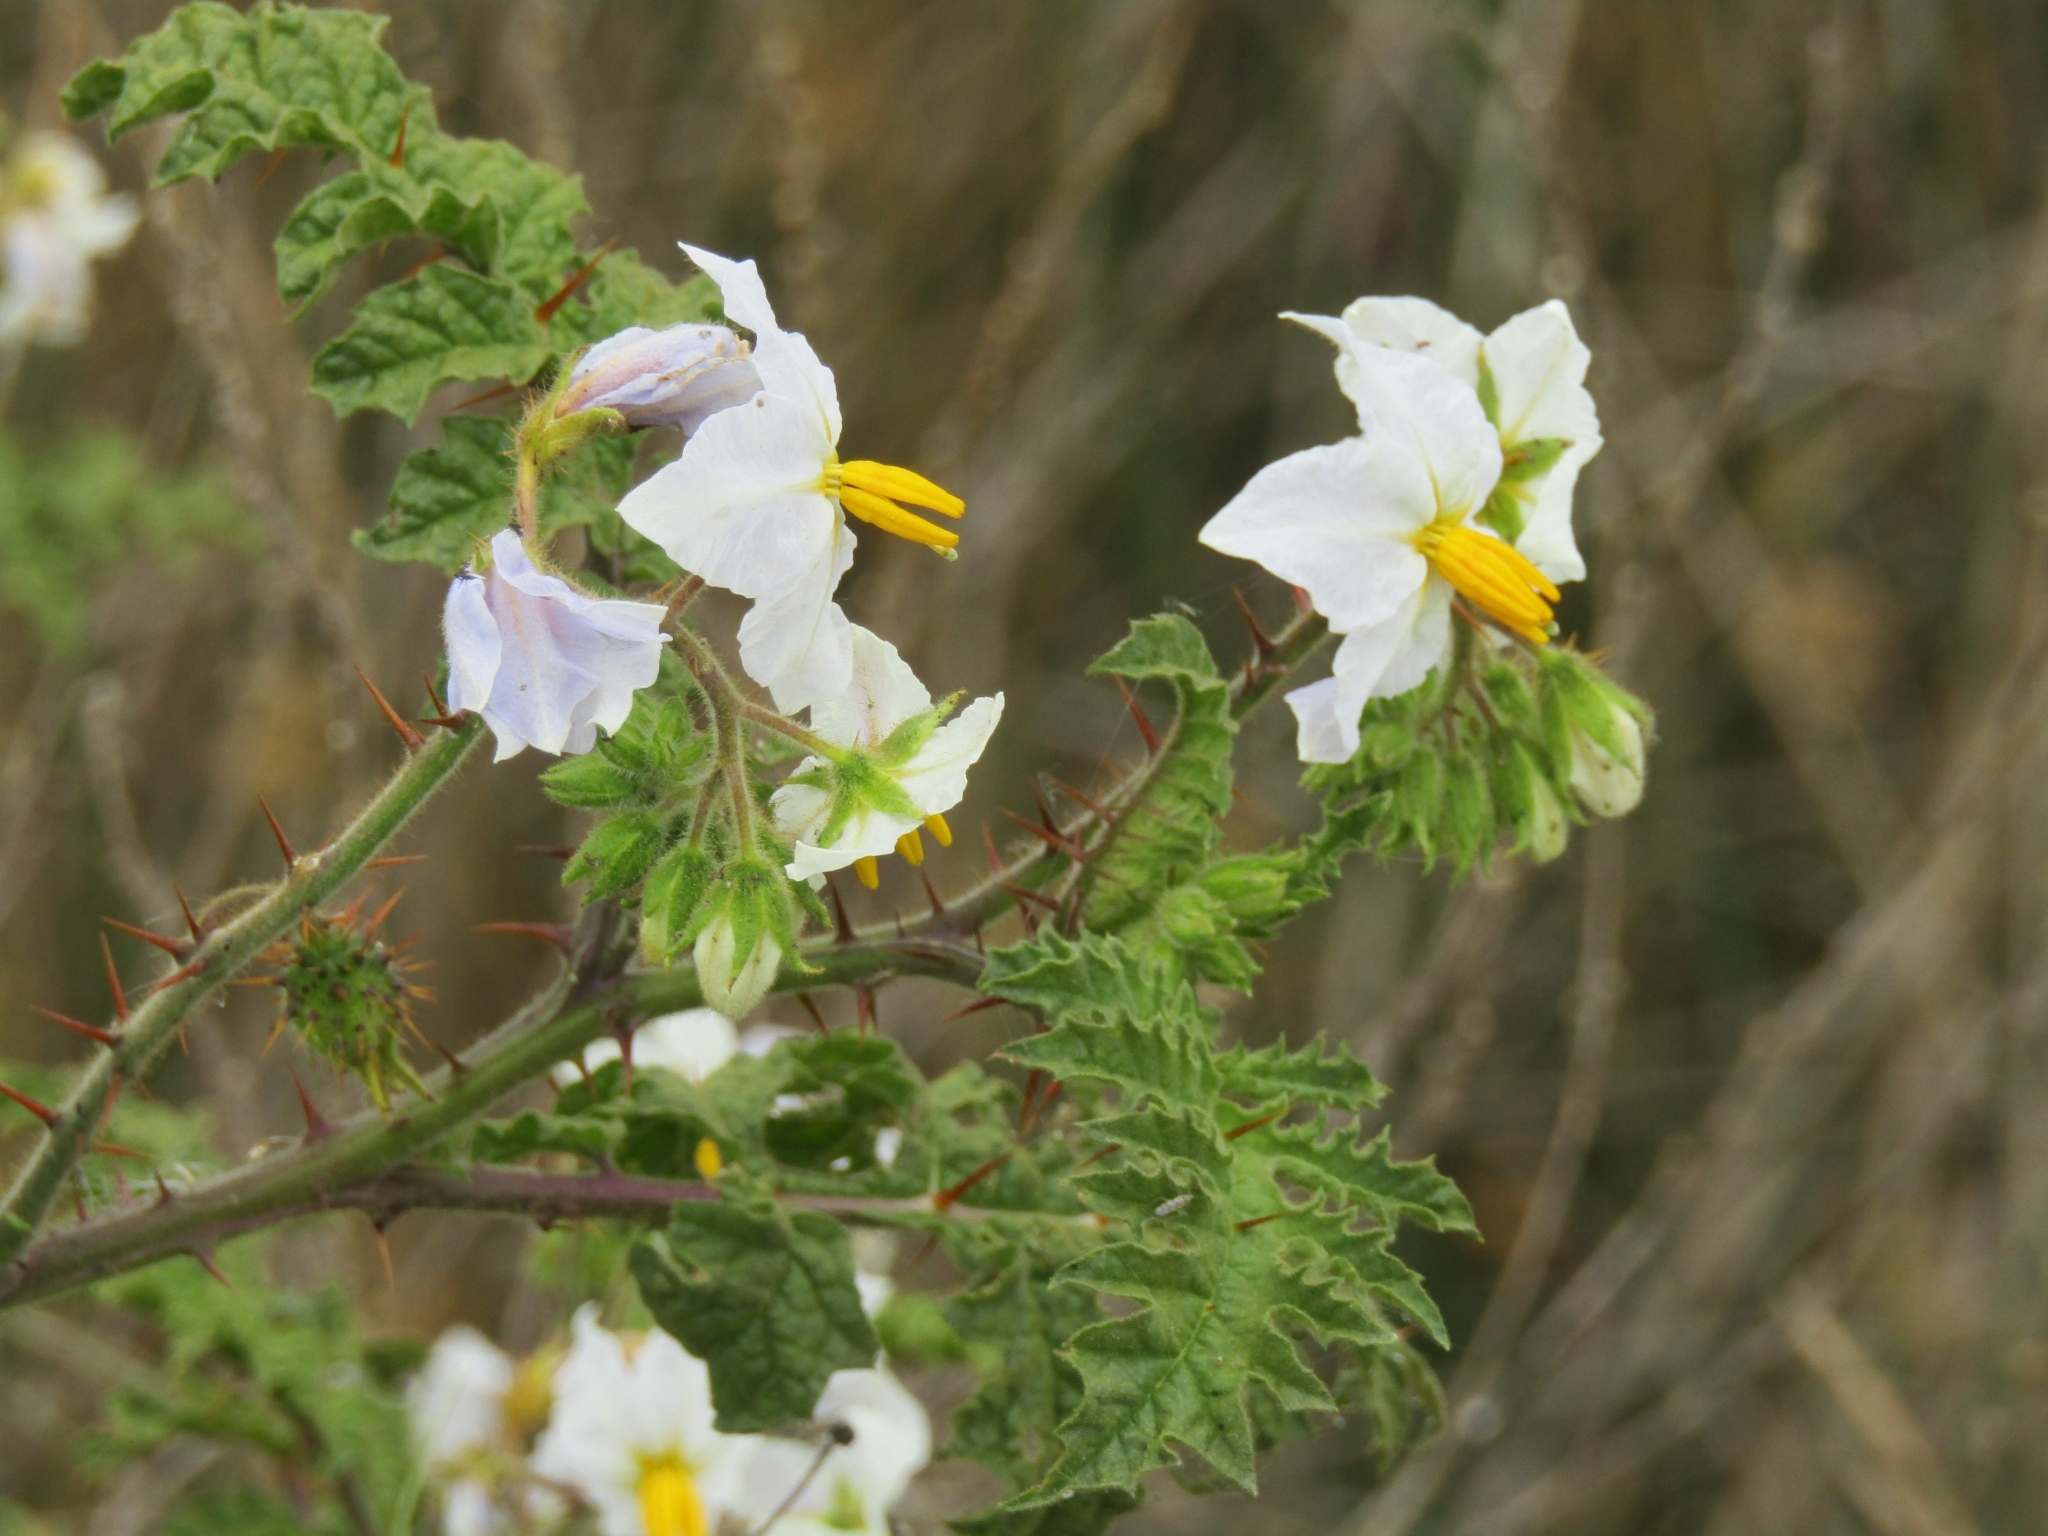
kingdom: Plantae
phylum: Tracheophyta
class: Magnoliopsida
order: Solanales
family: Solanaceae
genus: Solanum
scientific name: Solanum sisymbriifolium
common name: Red buffalo-bur
